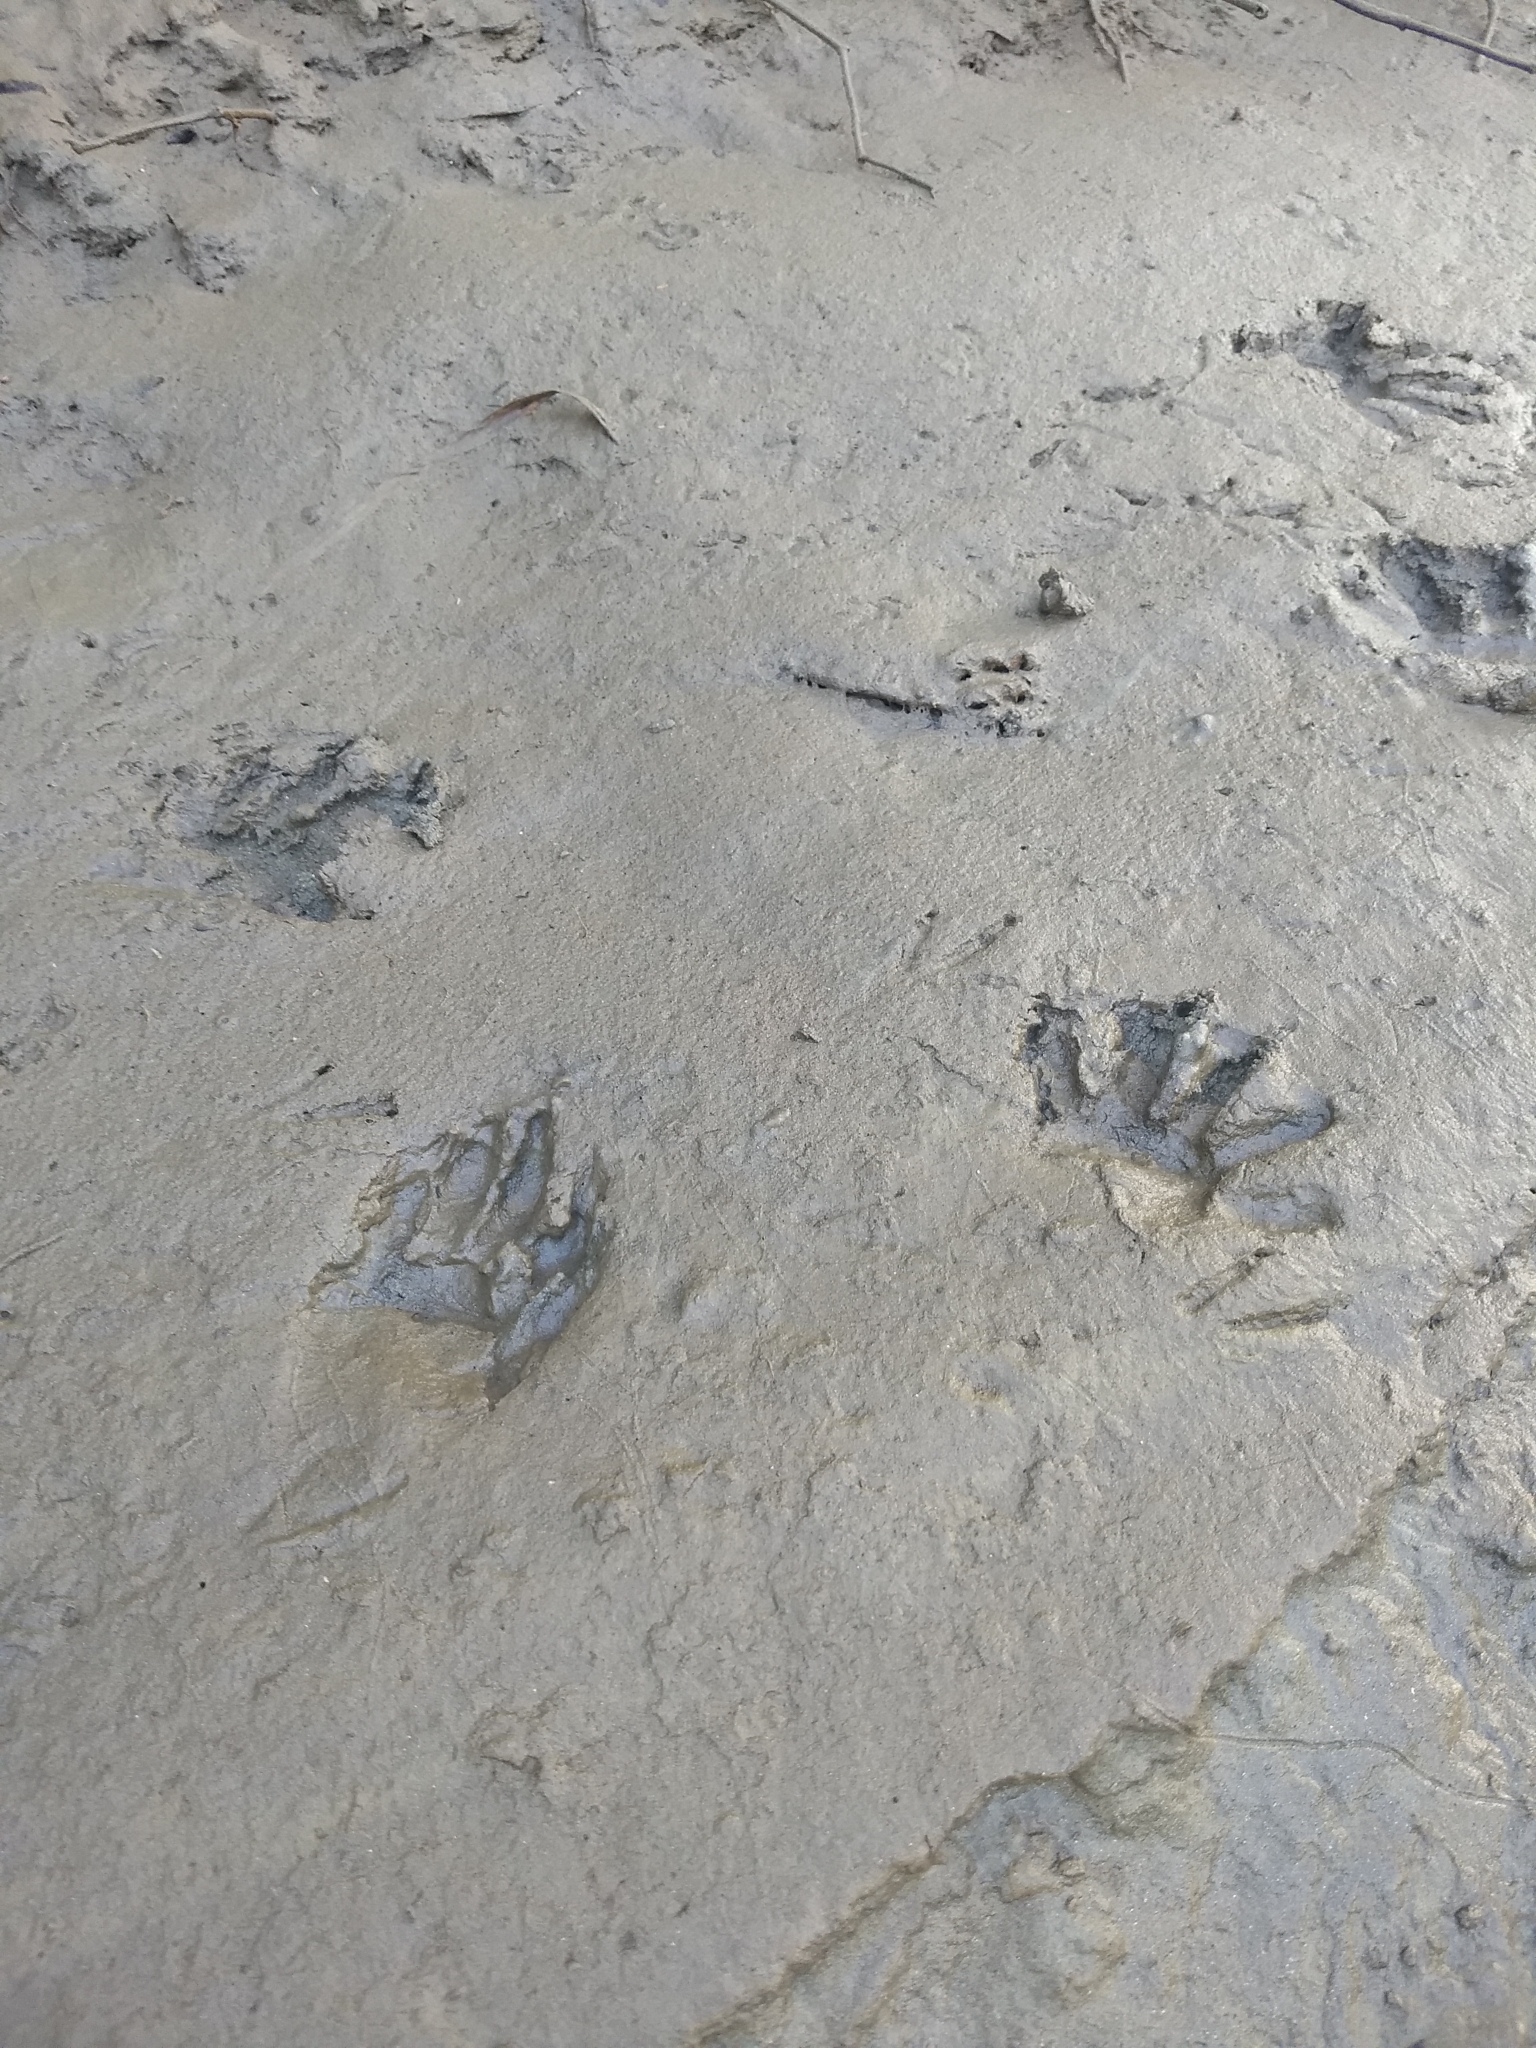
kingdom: Animalia
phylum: Chordata
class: Mammalia
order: Carnivora
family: Procyonidae
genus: Procyon
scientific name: Procyon lotor
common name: Raccoon
